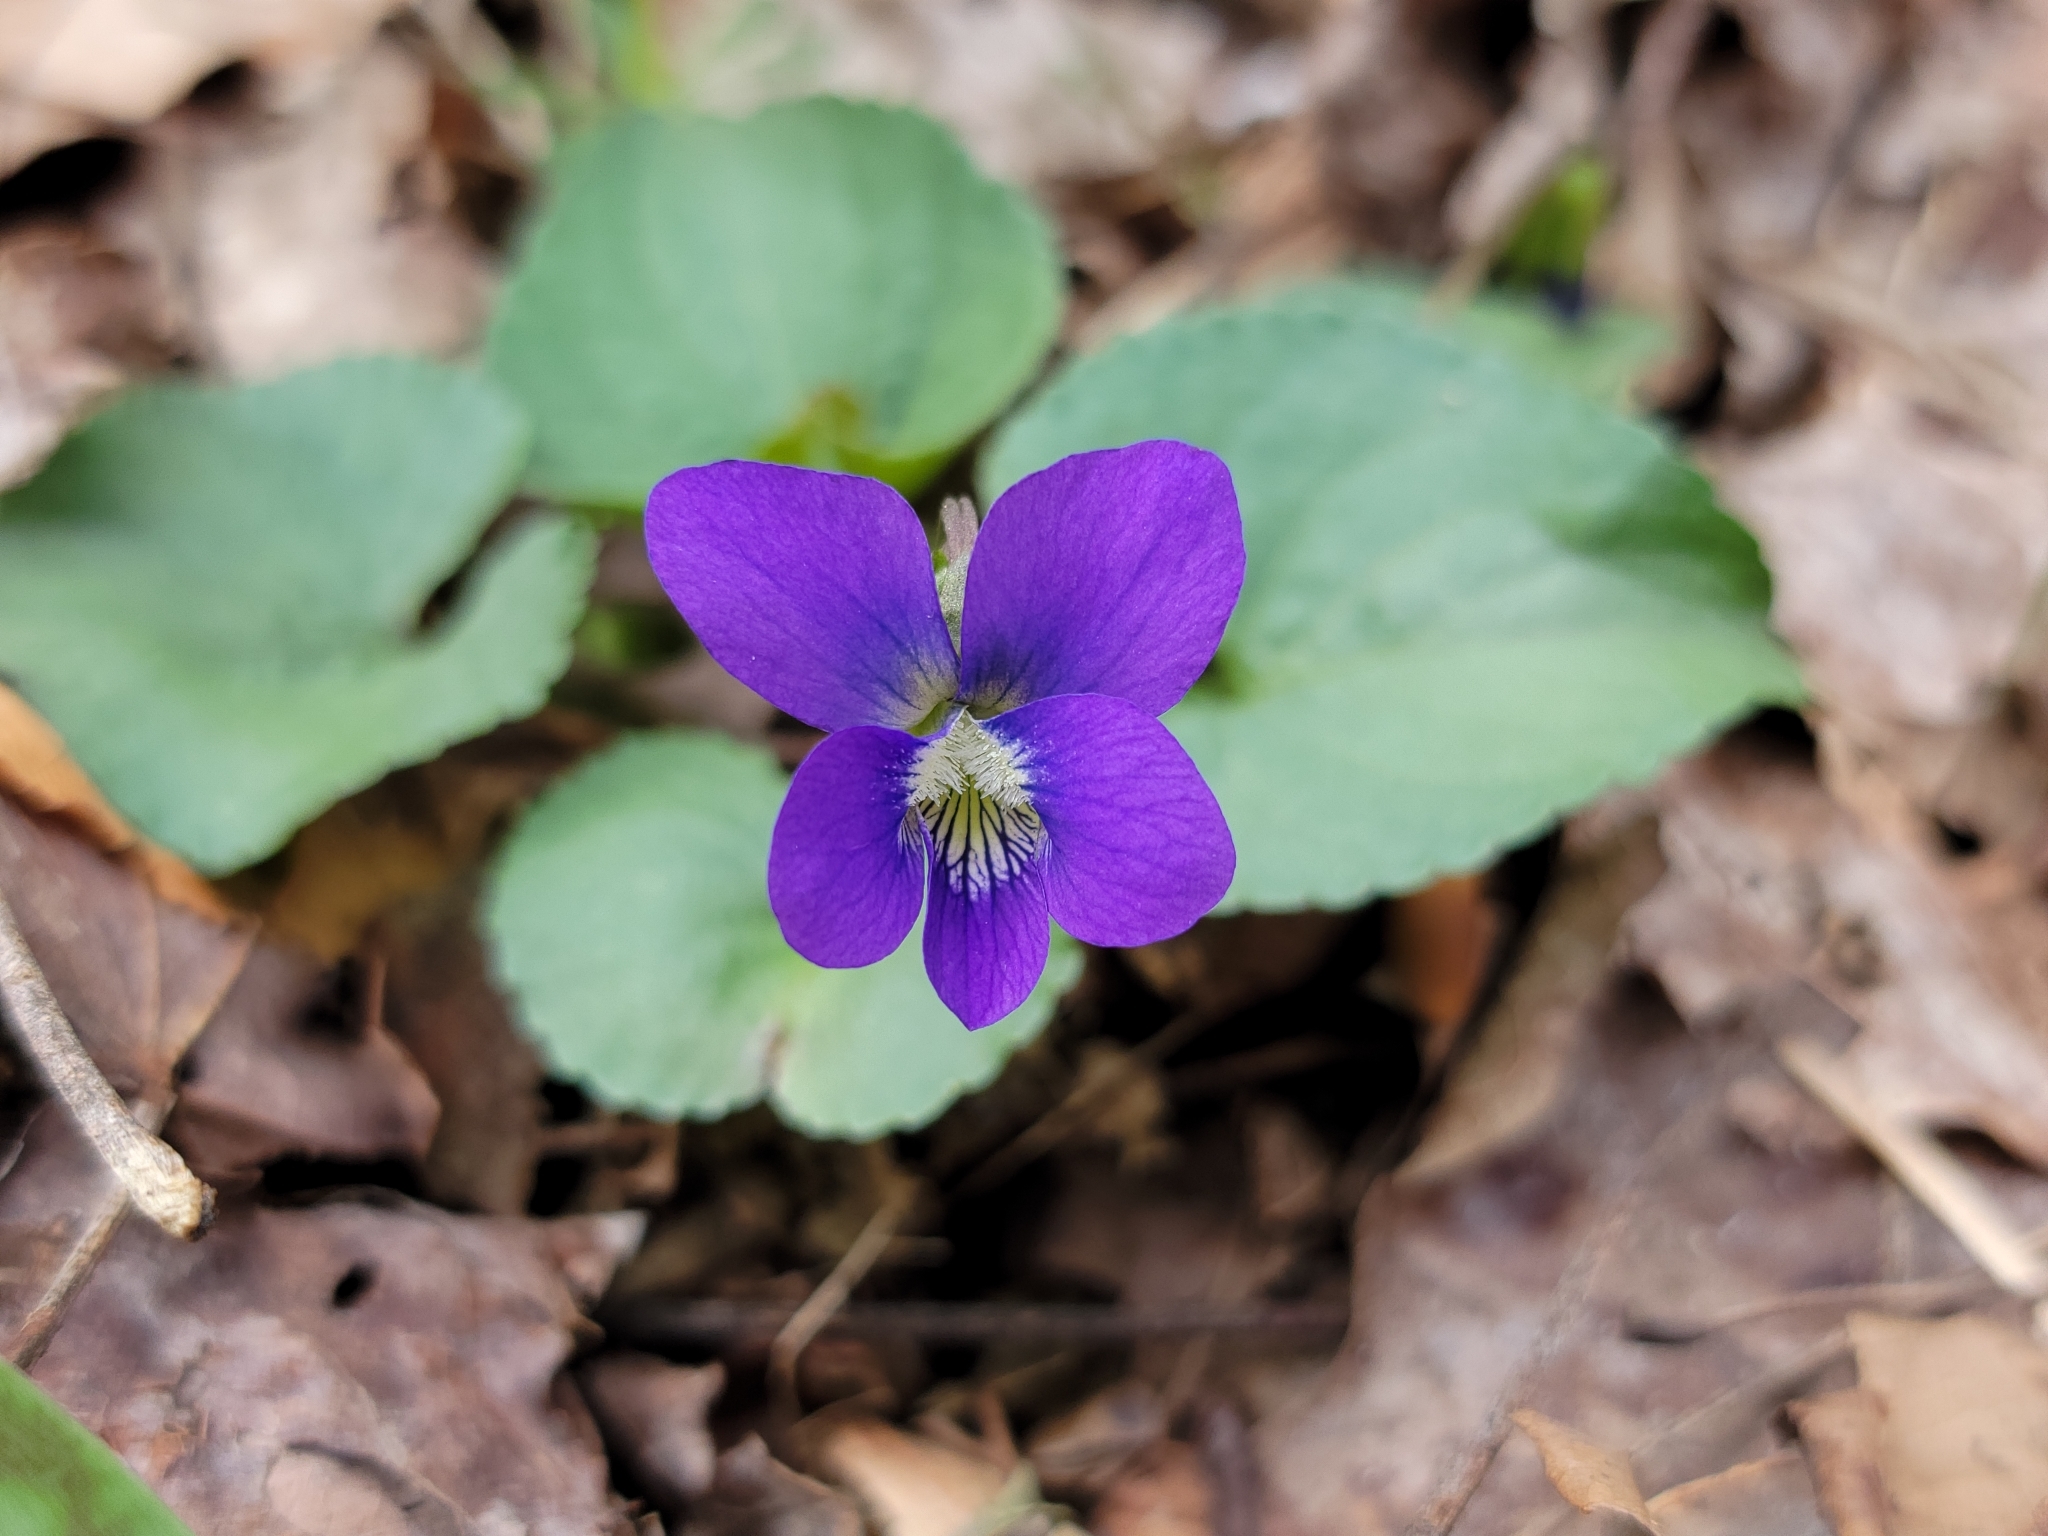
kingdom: Plantae
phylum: Tracheophyta
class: Magnoliopsida
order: Malpighiales
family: Violaceae
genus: Viola
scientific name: Viola sororia
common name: Dooryard violet
